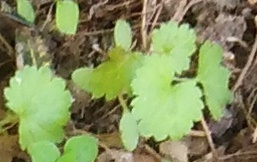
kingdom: Plantae
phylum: Tracheophyta
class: Magnoliopsida
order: Lamiales
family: Lamiaceae
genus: Glechoma
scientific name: Glechoma hederacea
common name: Ground ivy
